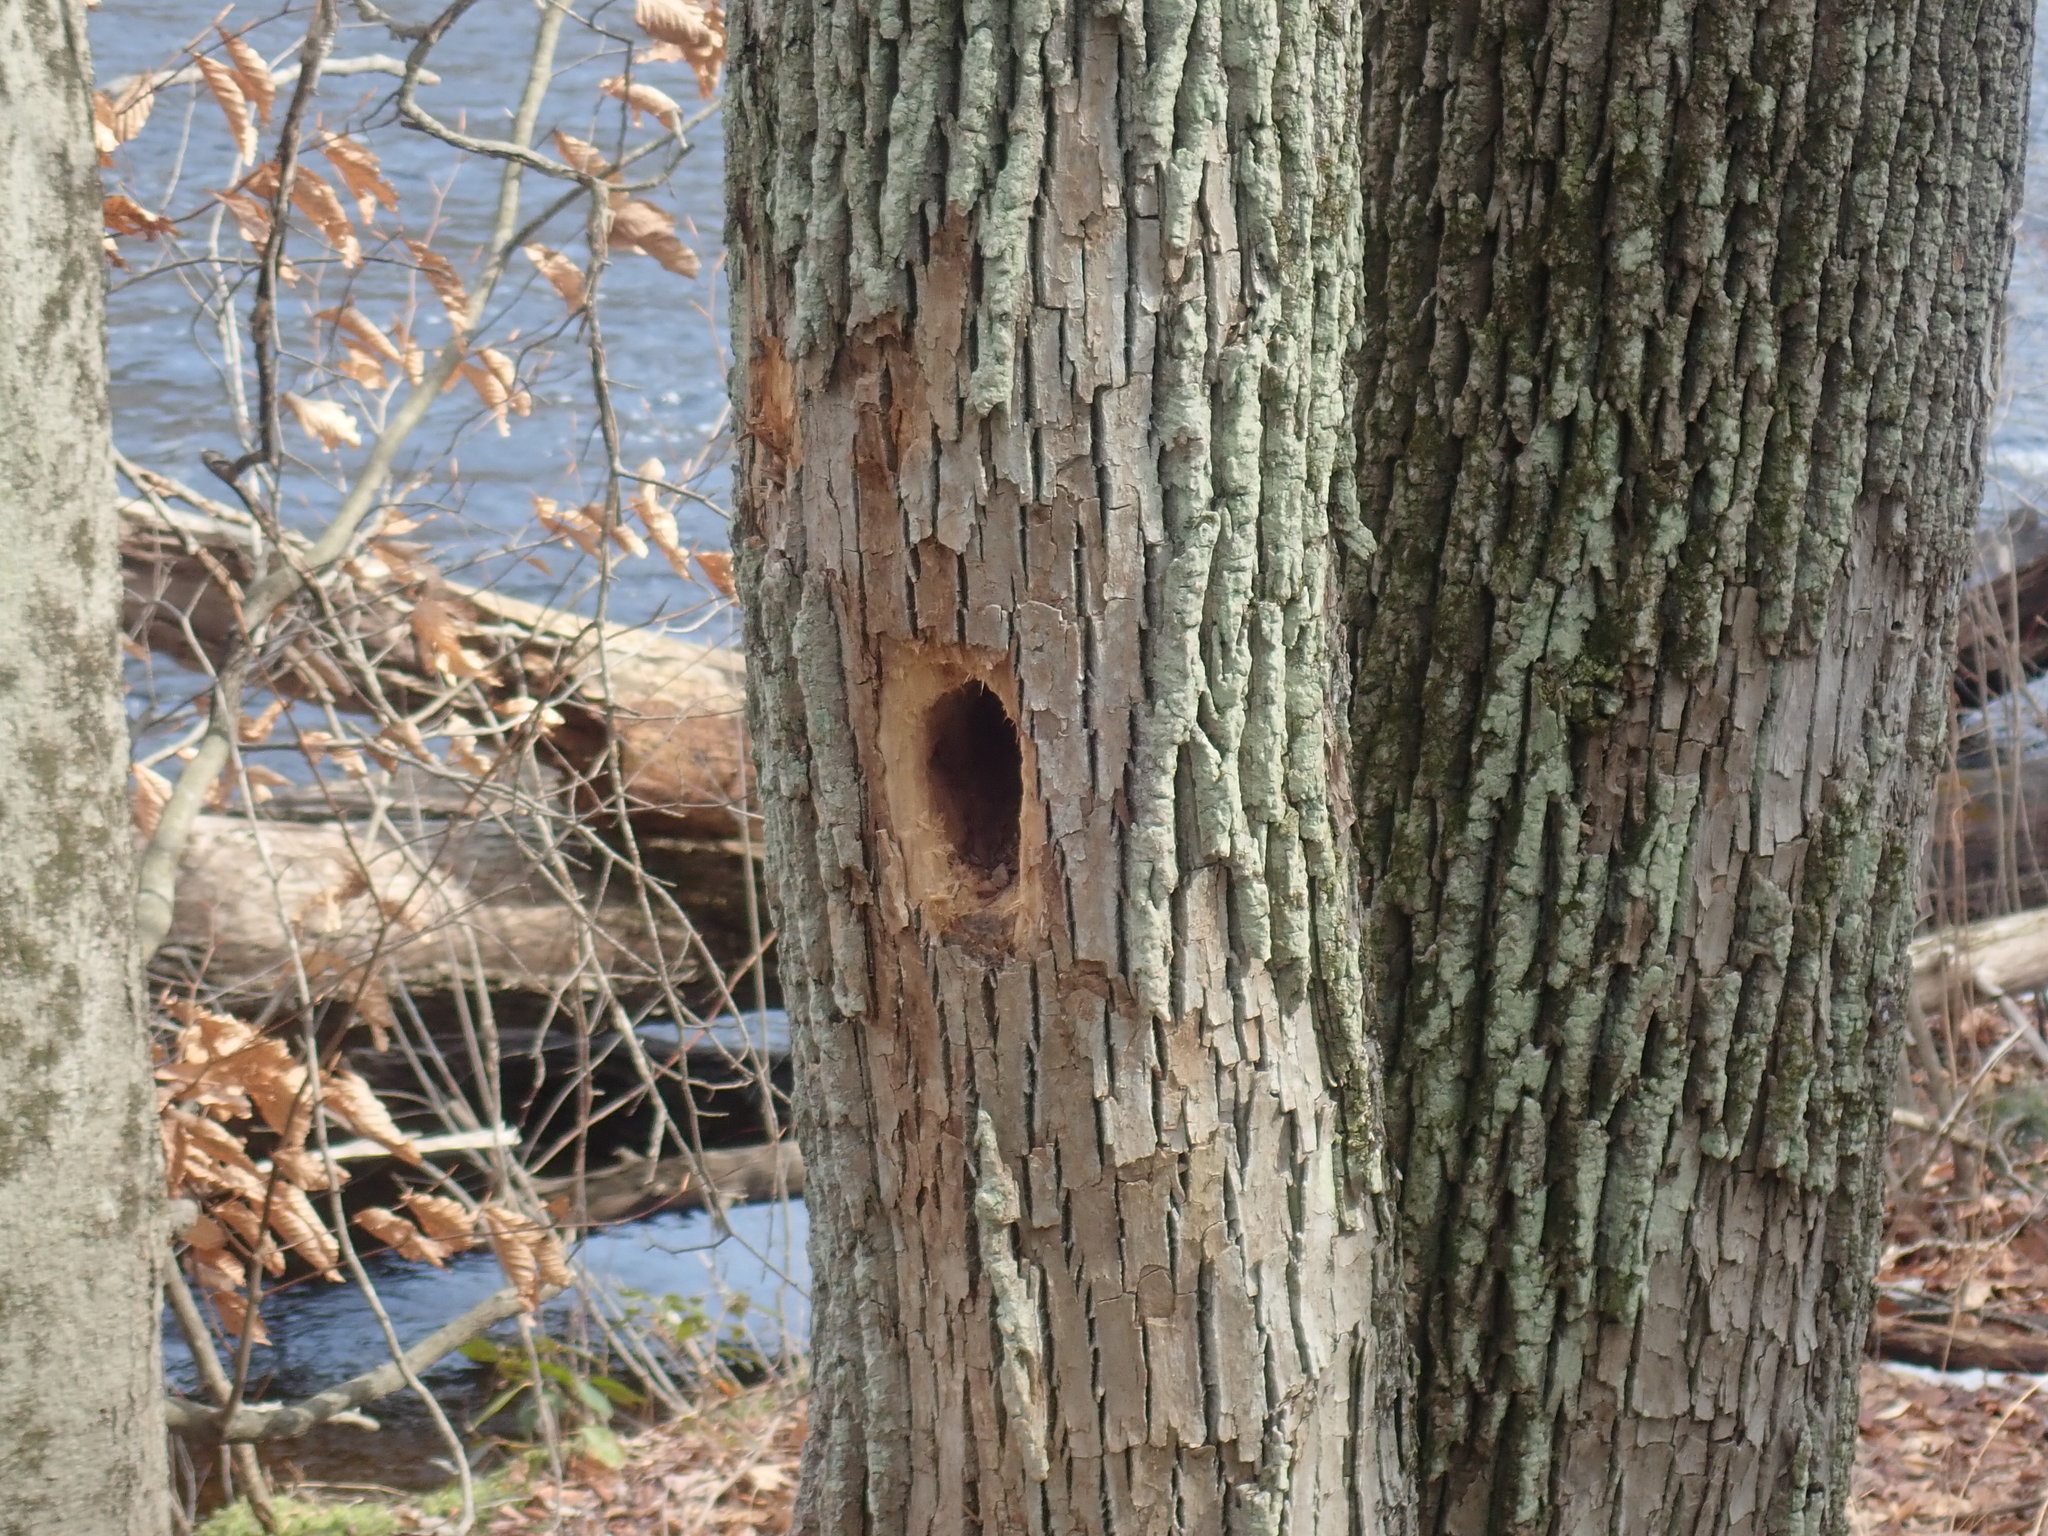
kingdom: Animalia
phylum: Chordata
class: Aves
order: Piciformes
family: Picidae
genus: Dryocopus
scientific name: Dryocopus pileatus
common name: Pileated woodpecker
